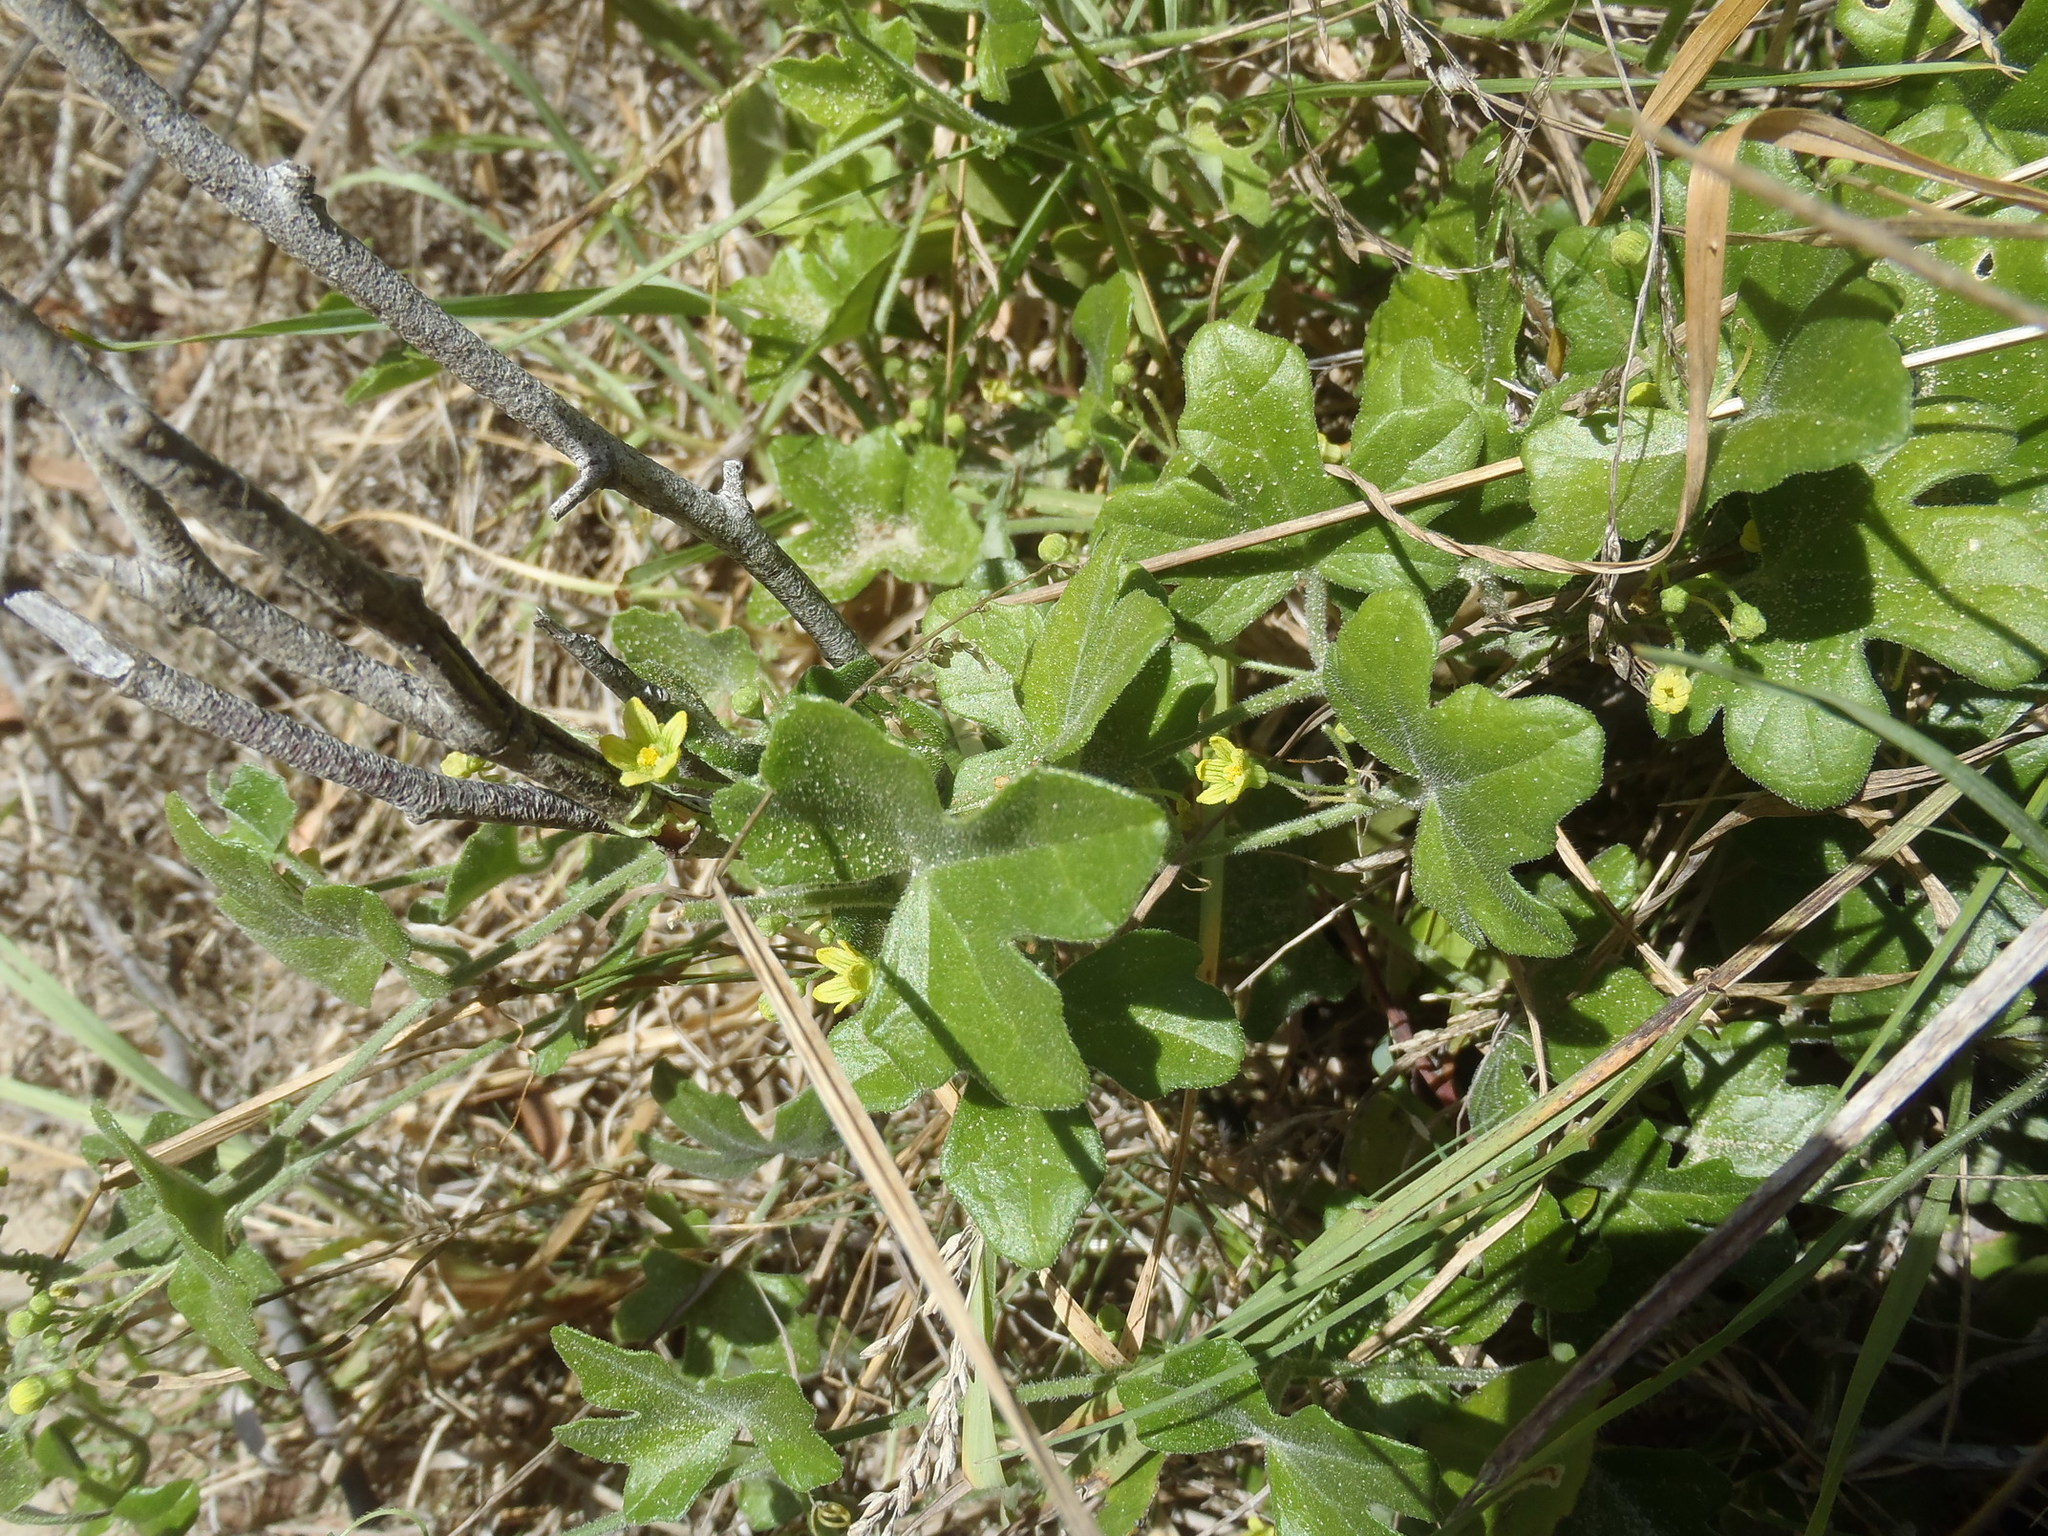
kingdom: Plantae
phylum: Tracheophyta
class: Magnoliopsida
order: Cucurbitales
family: Cucurbitaceae
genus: Kedrostis
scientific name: Kedrostis nana
